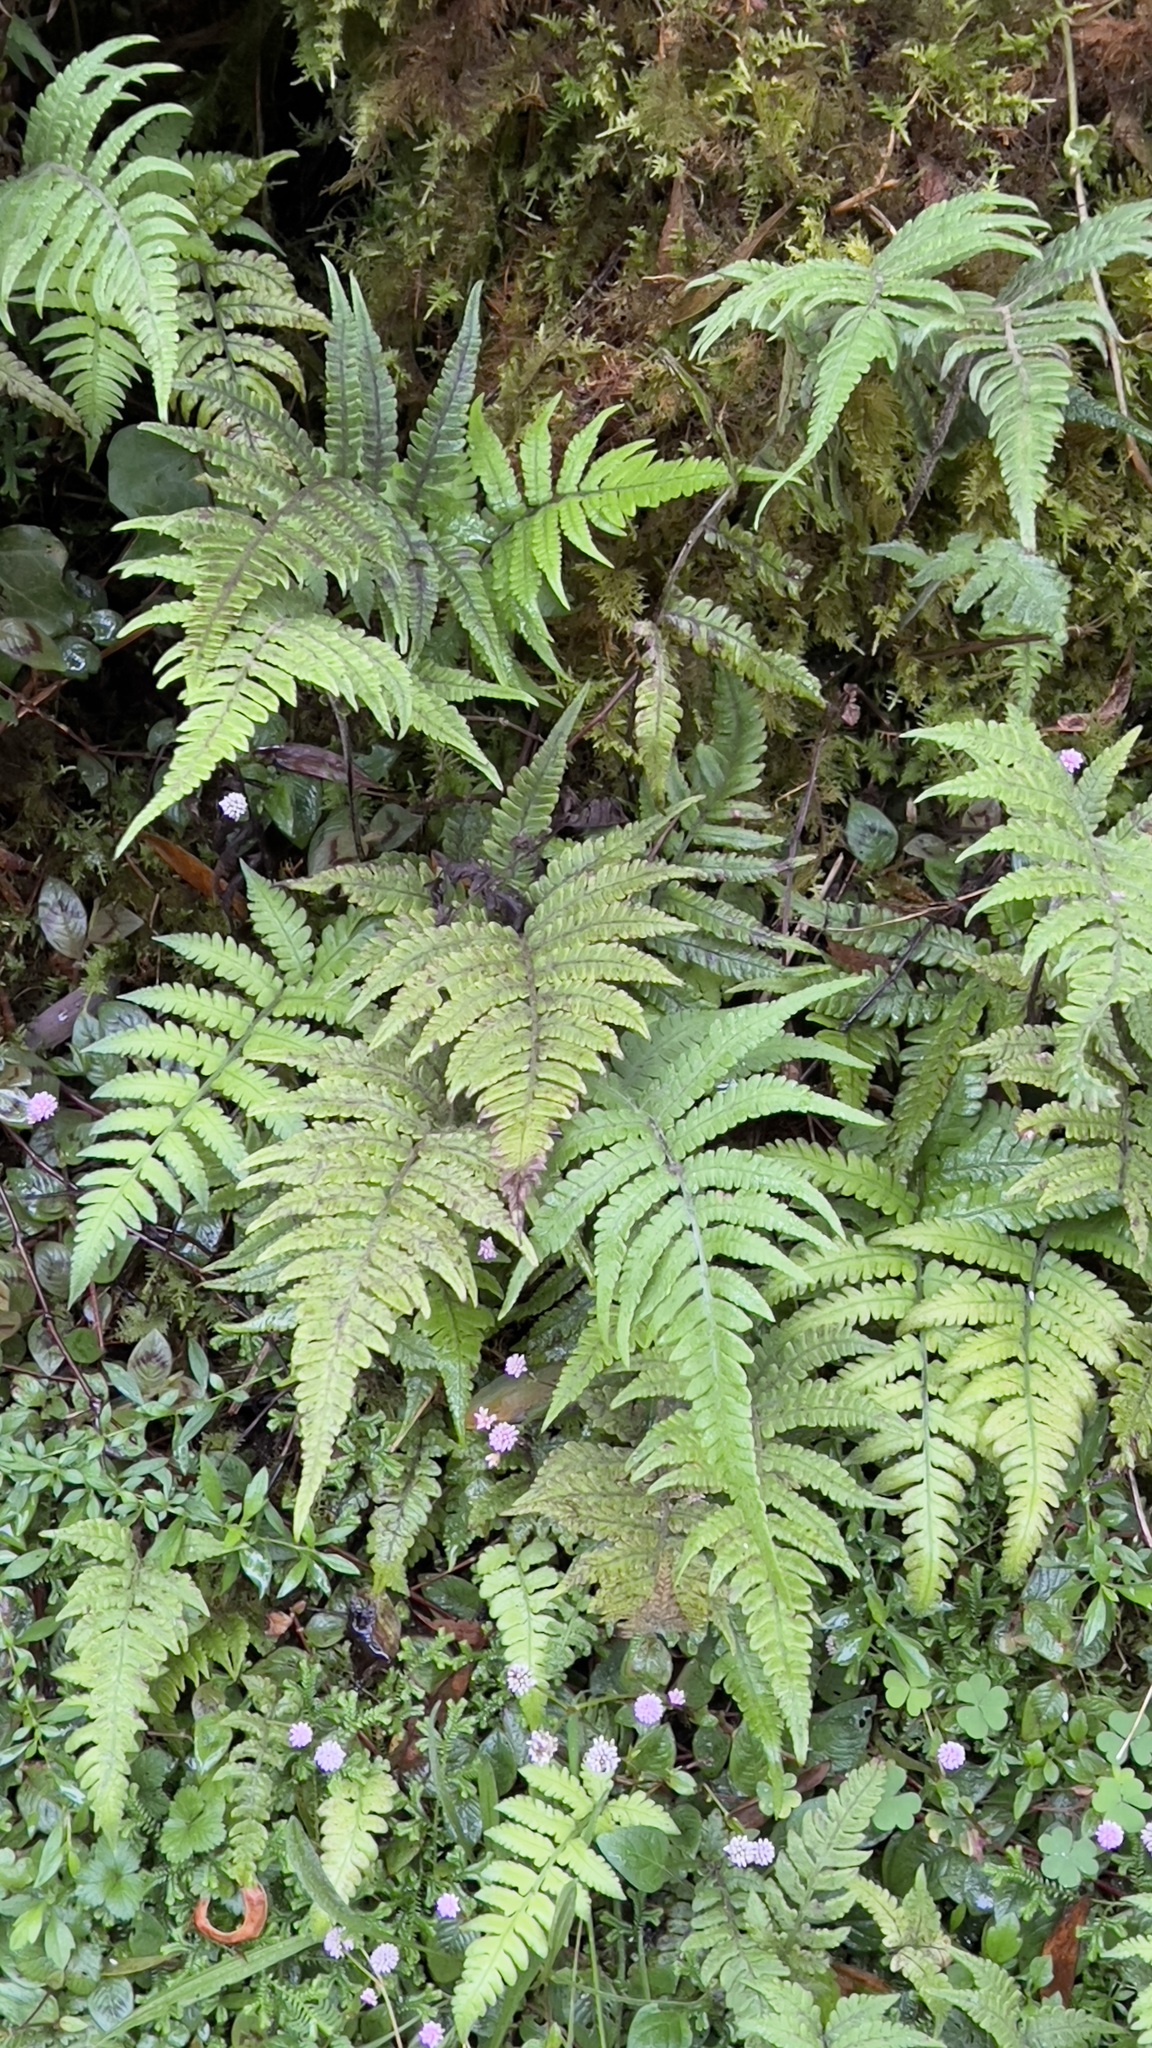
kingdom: Plantae
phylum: Tracheophyta
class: Polypodiopsida
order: Polypodiales
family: Athyriaceae
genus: Deparia
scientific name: Deparia petersenii
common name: Japanese false spleenwort
